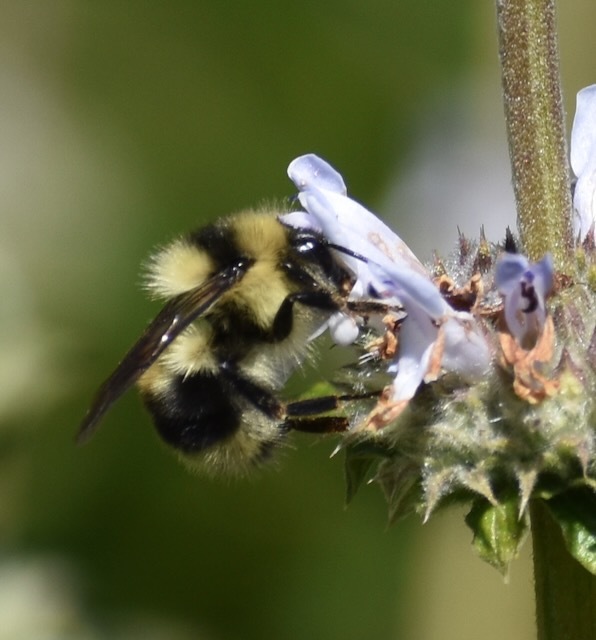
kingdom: Animalia
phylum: Arthropoda
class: Insecta
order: Hymenoptera
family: Apidae
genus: Bombus
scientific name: Bombus melanopygus
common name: Black tail bumble bee
